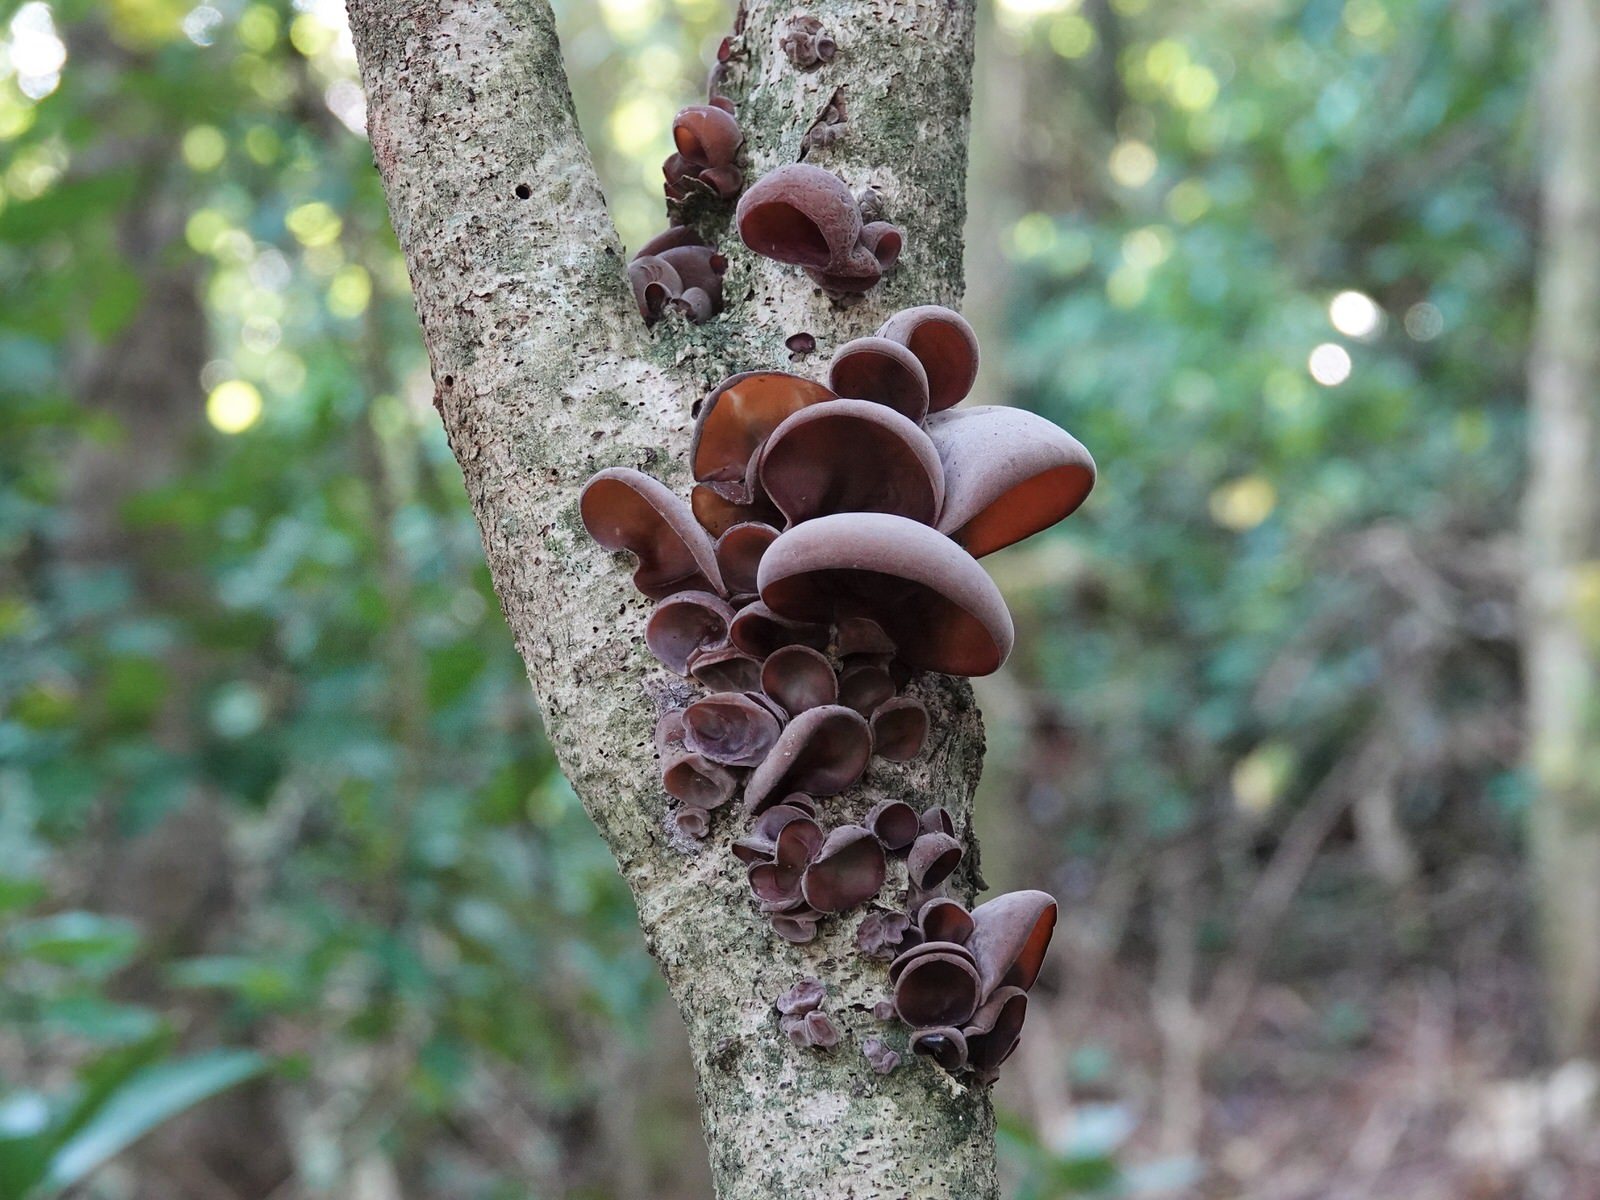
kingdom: Fungi
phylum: Basidiomycota
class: Agaricomycetes
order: Auriculariales
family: Auriculariaceae
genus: Auricularia
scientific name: Auricularia cornea
